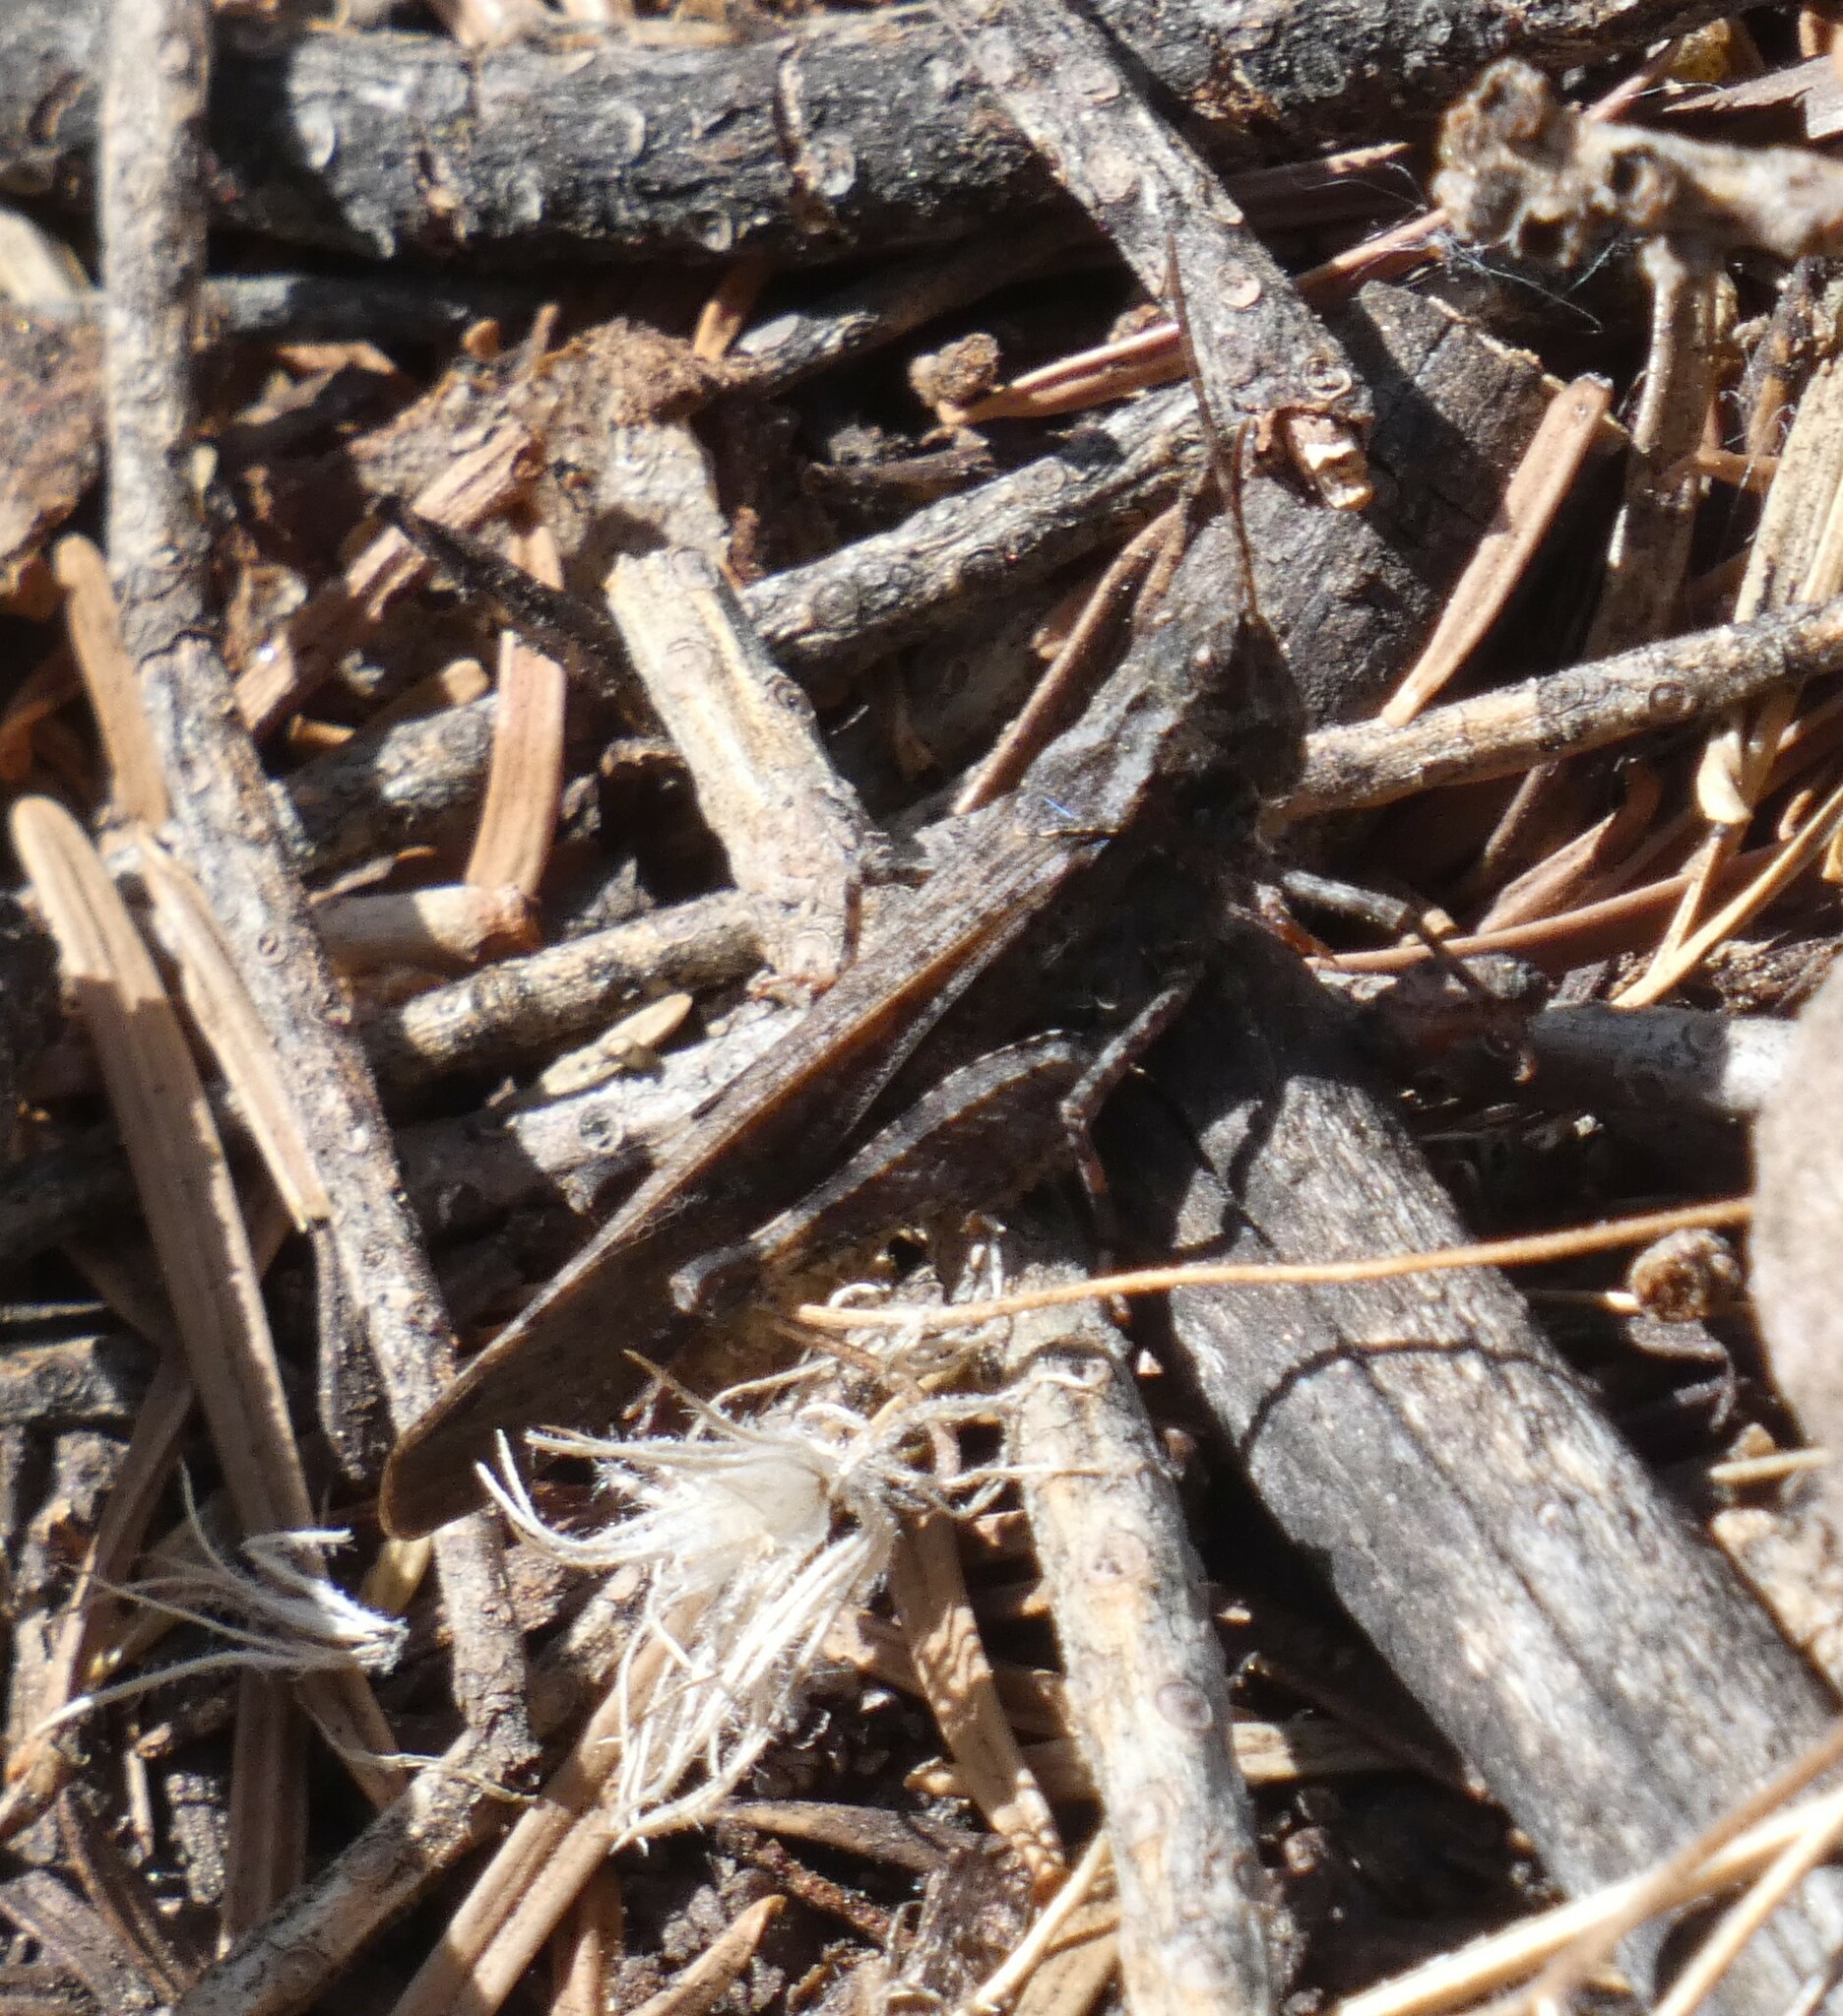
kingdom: Animalia
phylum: Arthropoda
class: Insecta
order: Orthoptera
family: Acrididae
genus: Trimerotropis
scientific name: Trimerotropis verruculata
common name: Crackling forest grasshopper
